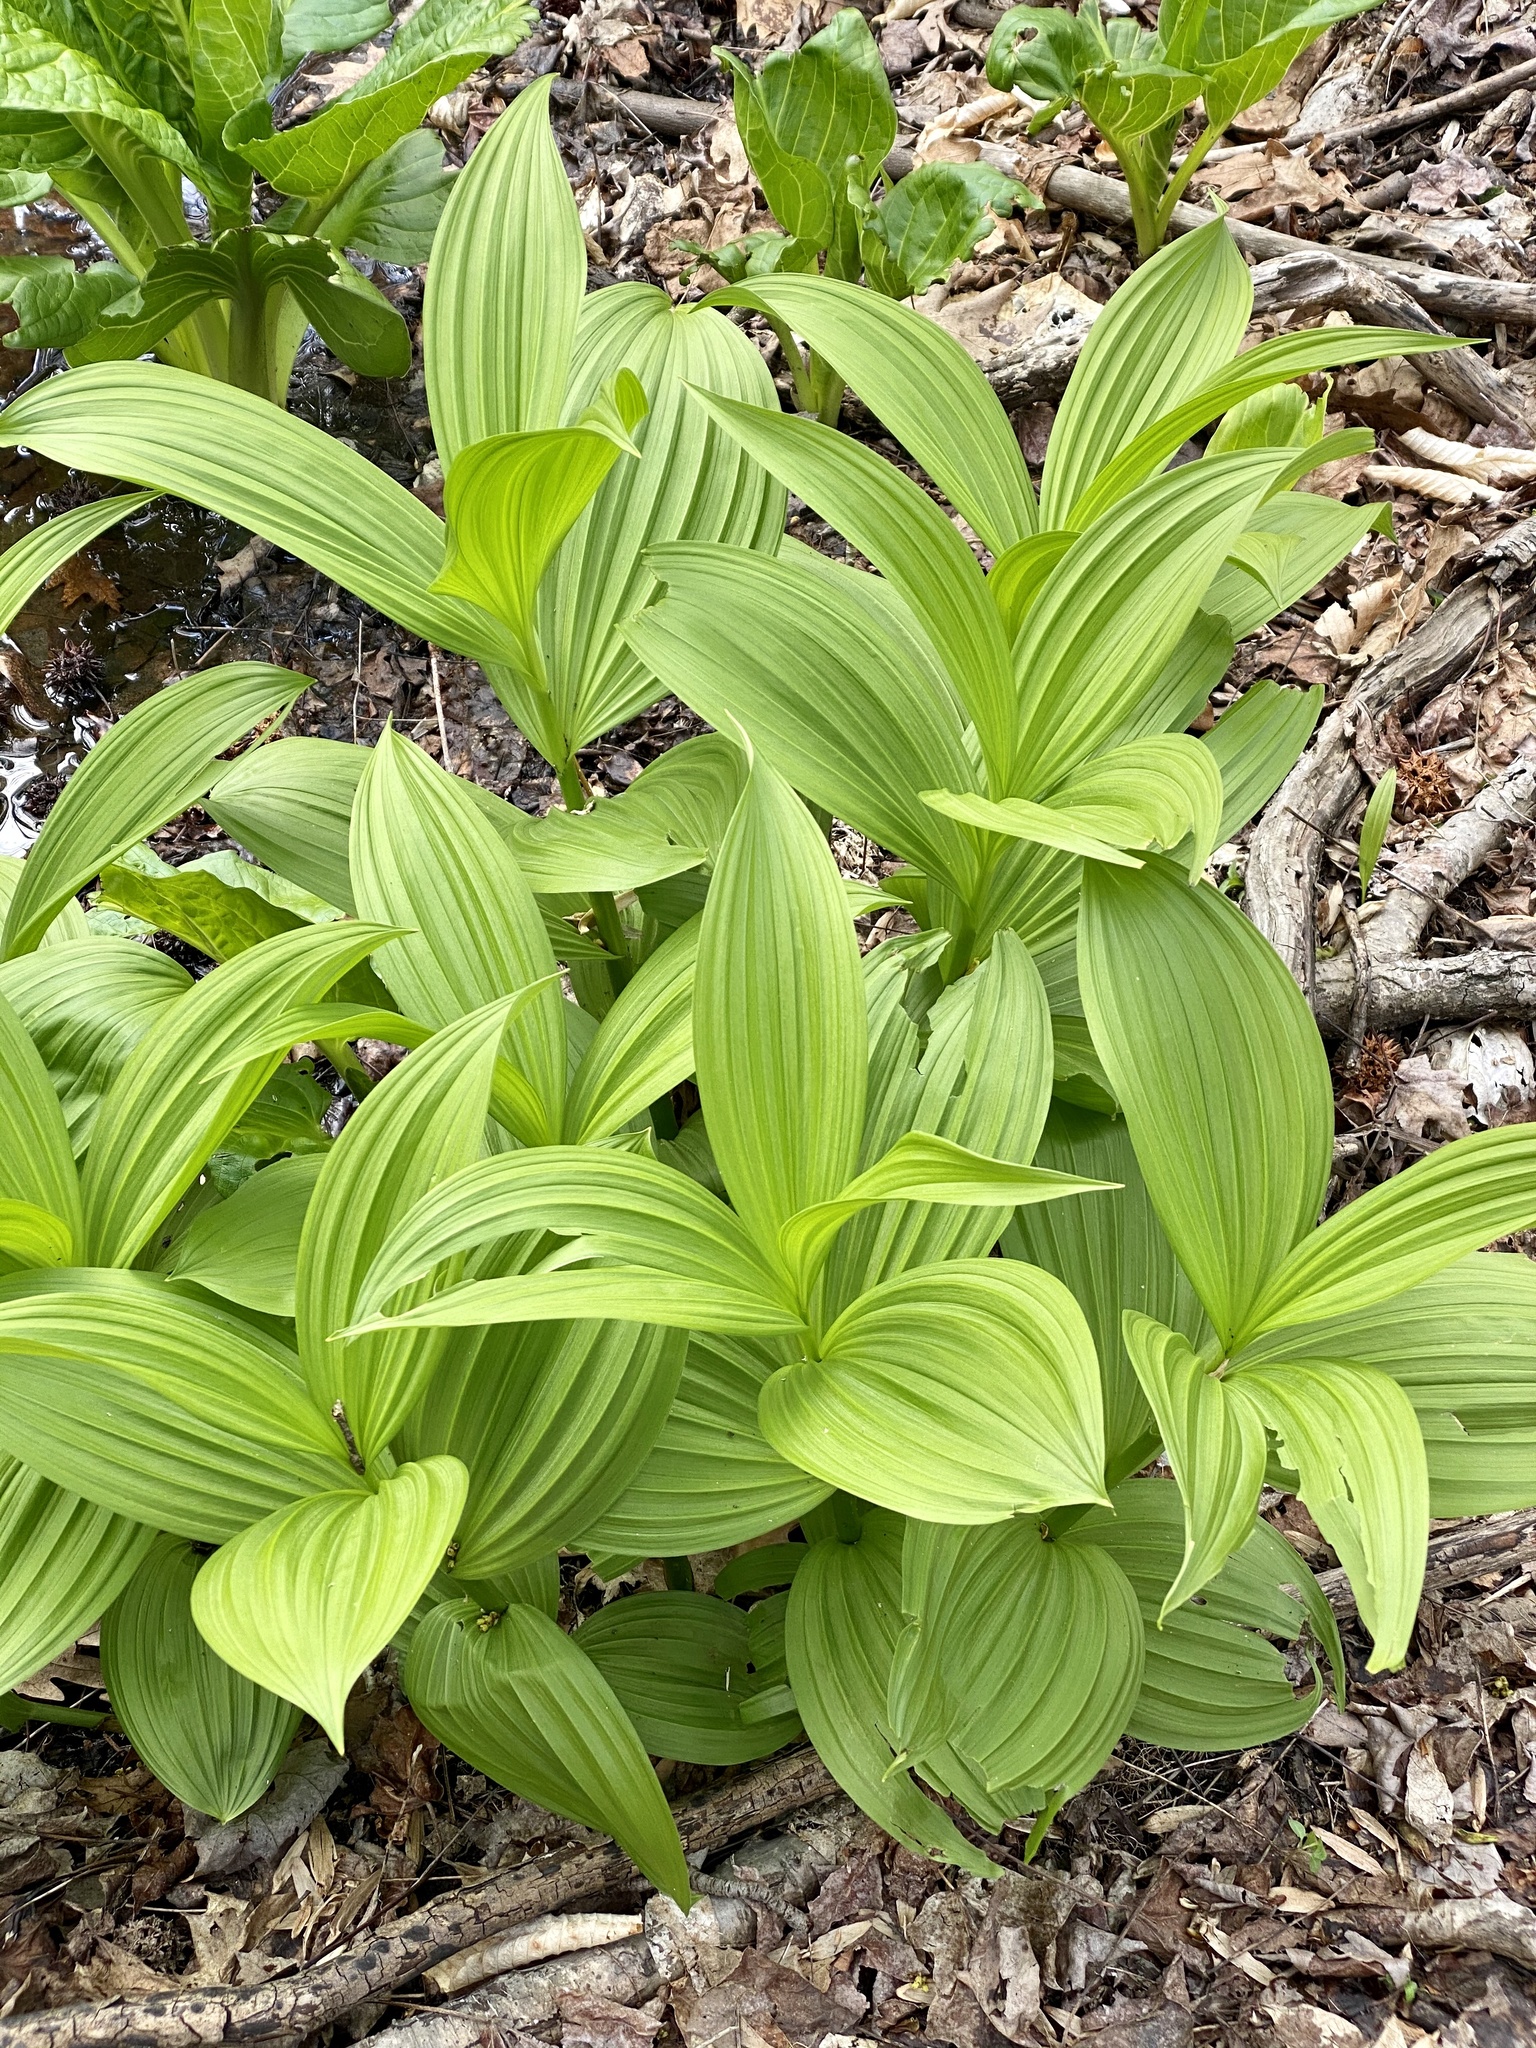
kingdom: Plantae
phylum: Tracheophyta
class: Liliopsida
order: Liliales
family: Melanthiaceae
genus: Veratrum
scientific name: Veratrum viride
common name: American false hellebore
